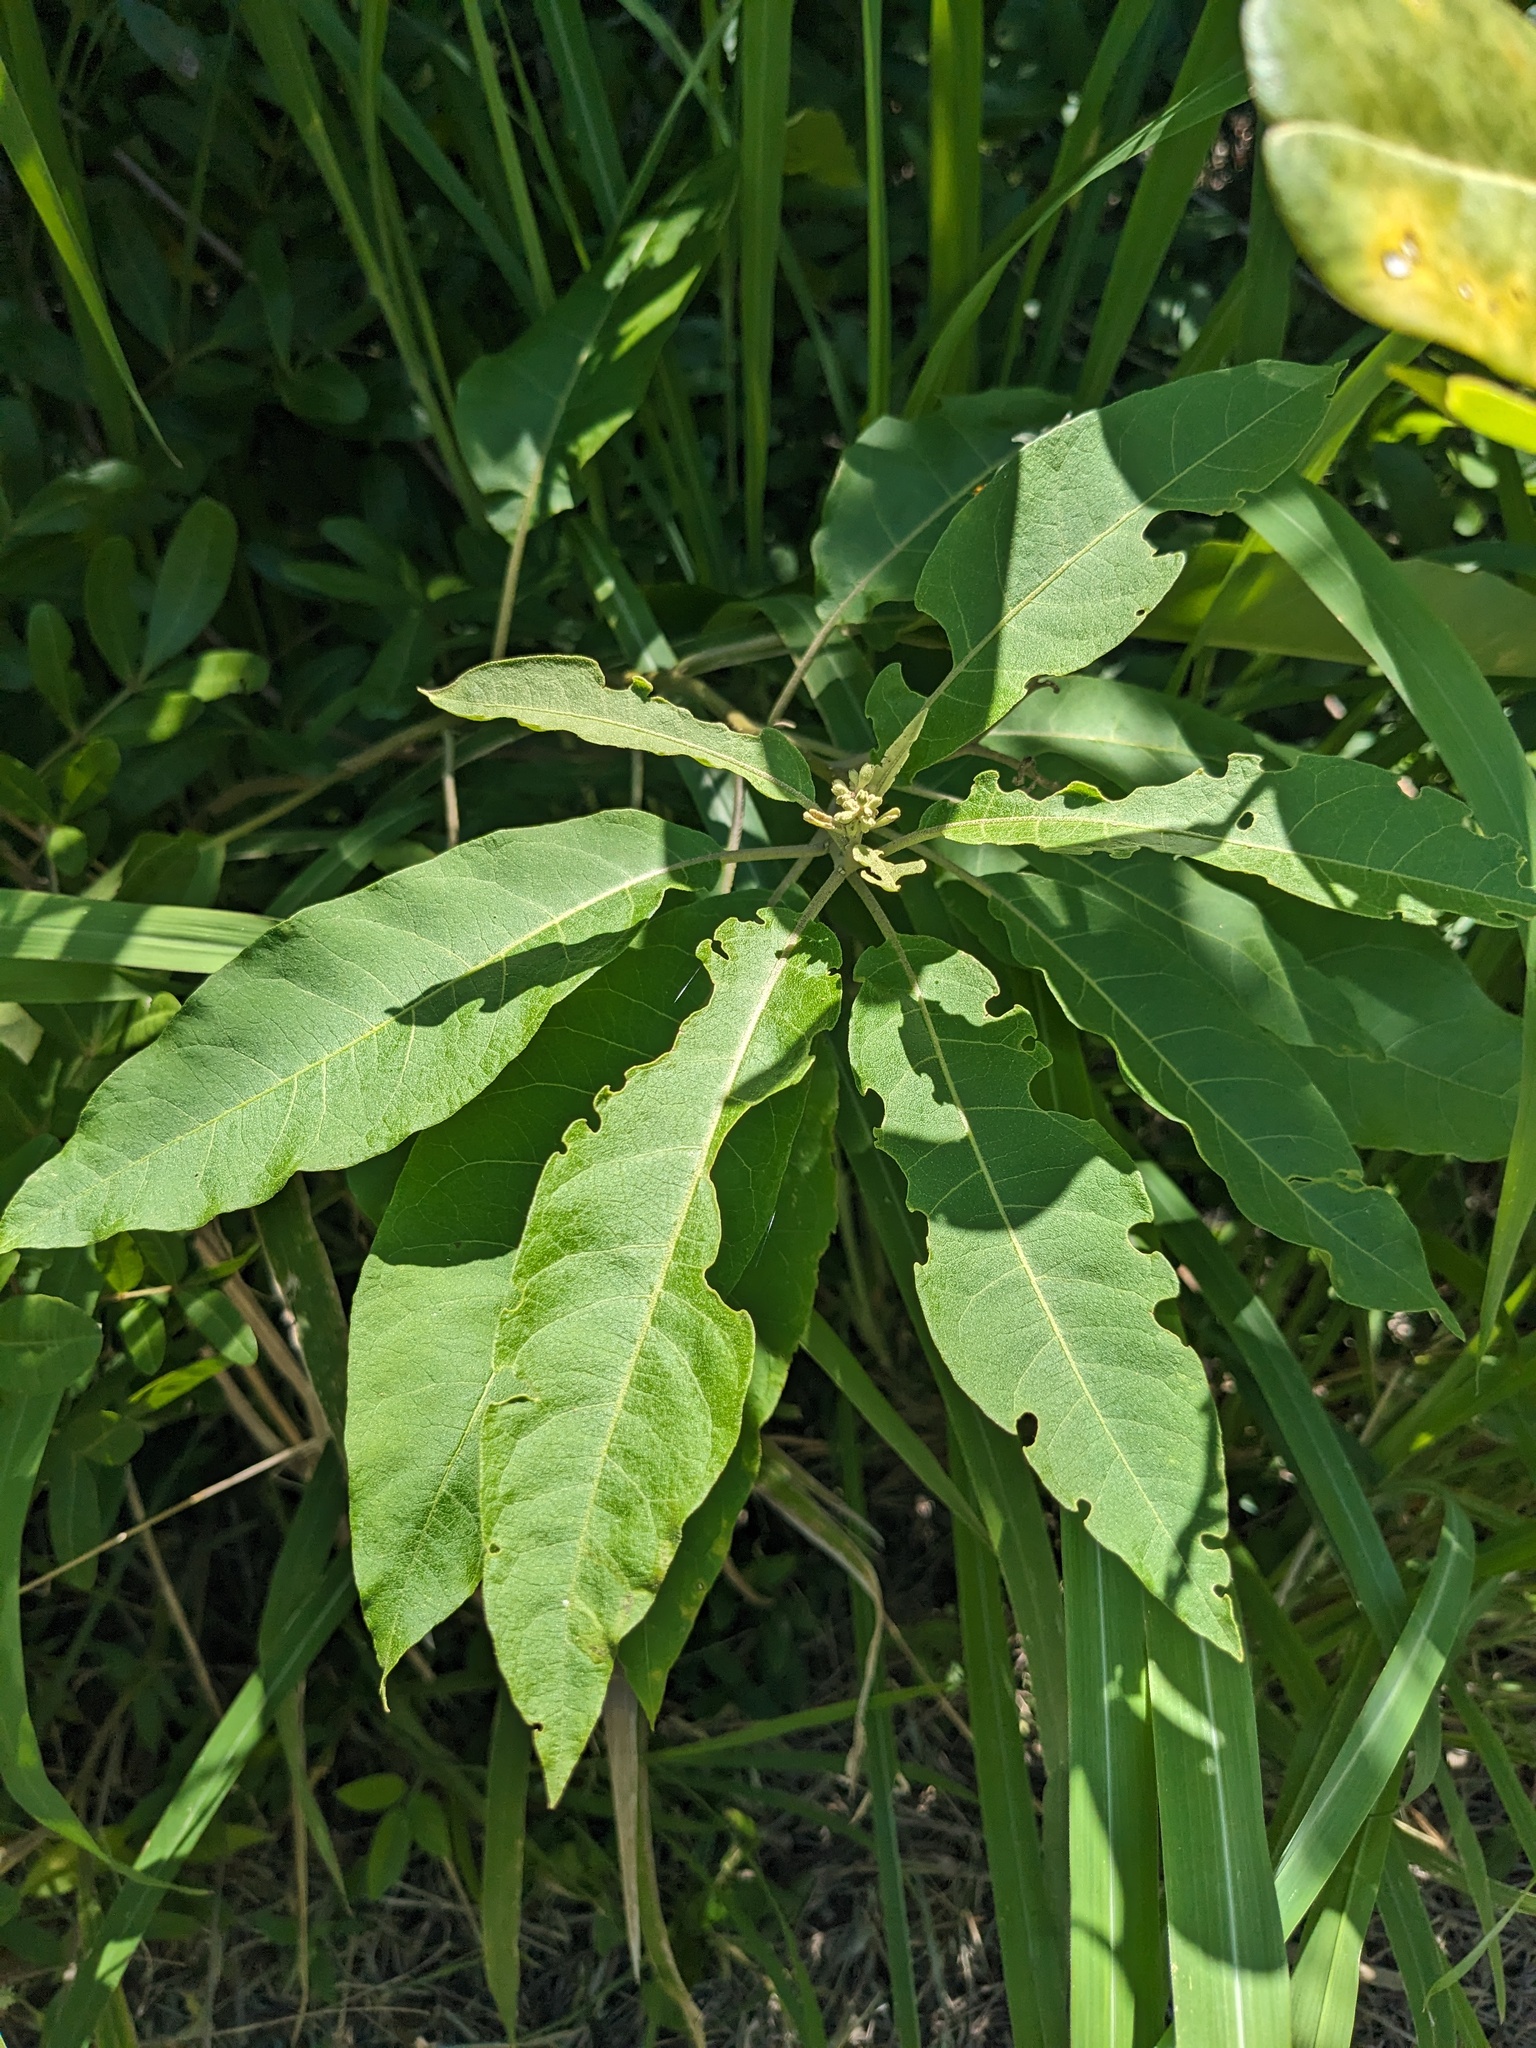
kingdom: Plantae
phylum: Tracheophyta
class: Magnoliopsida
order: Solanales
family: Solanaceae
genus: Solanum
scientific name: Solanum donianum
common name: Mullein nightshade
